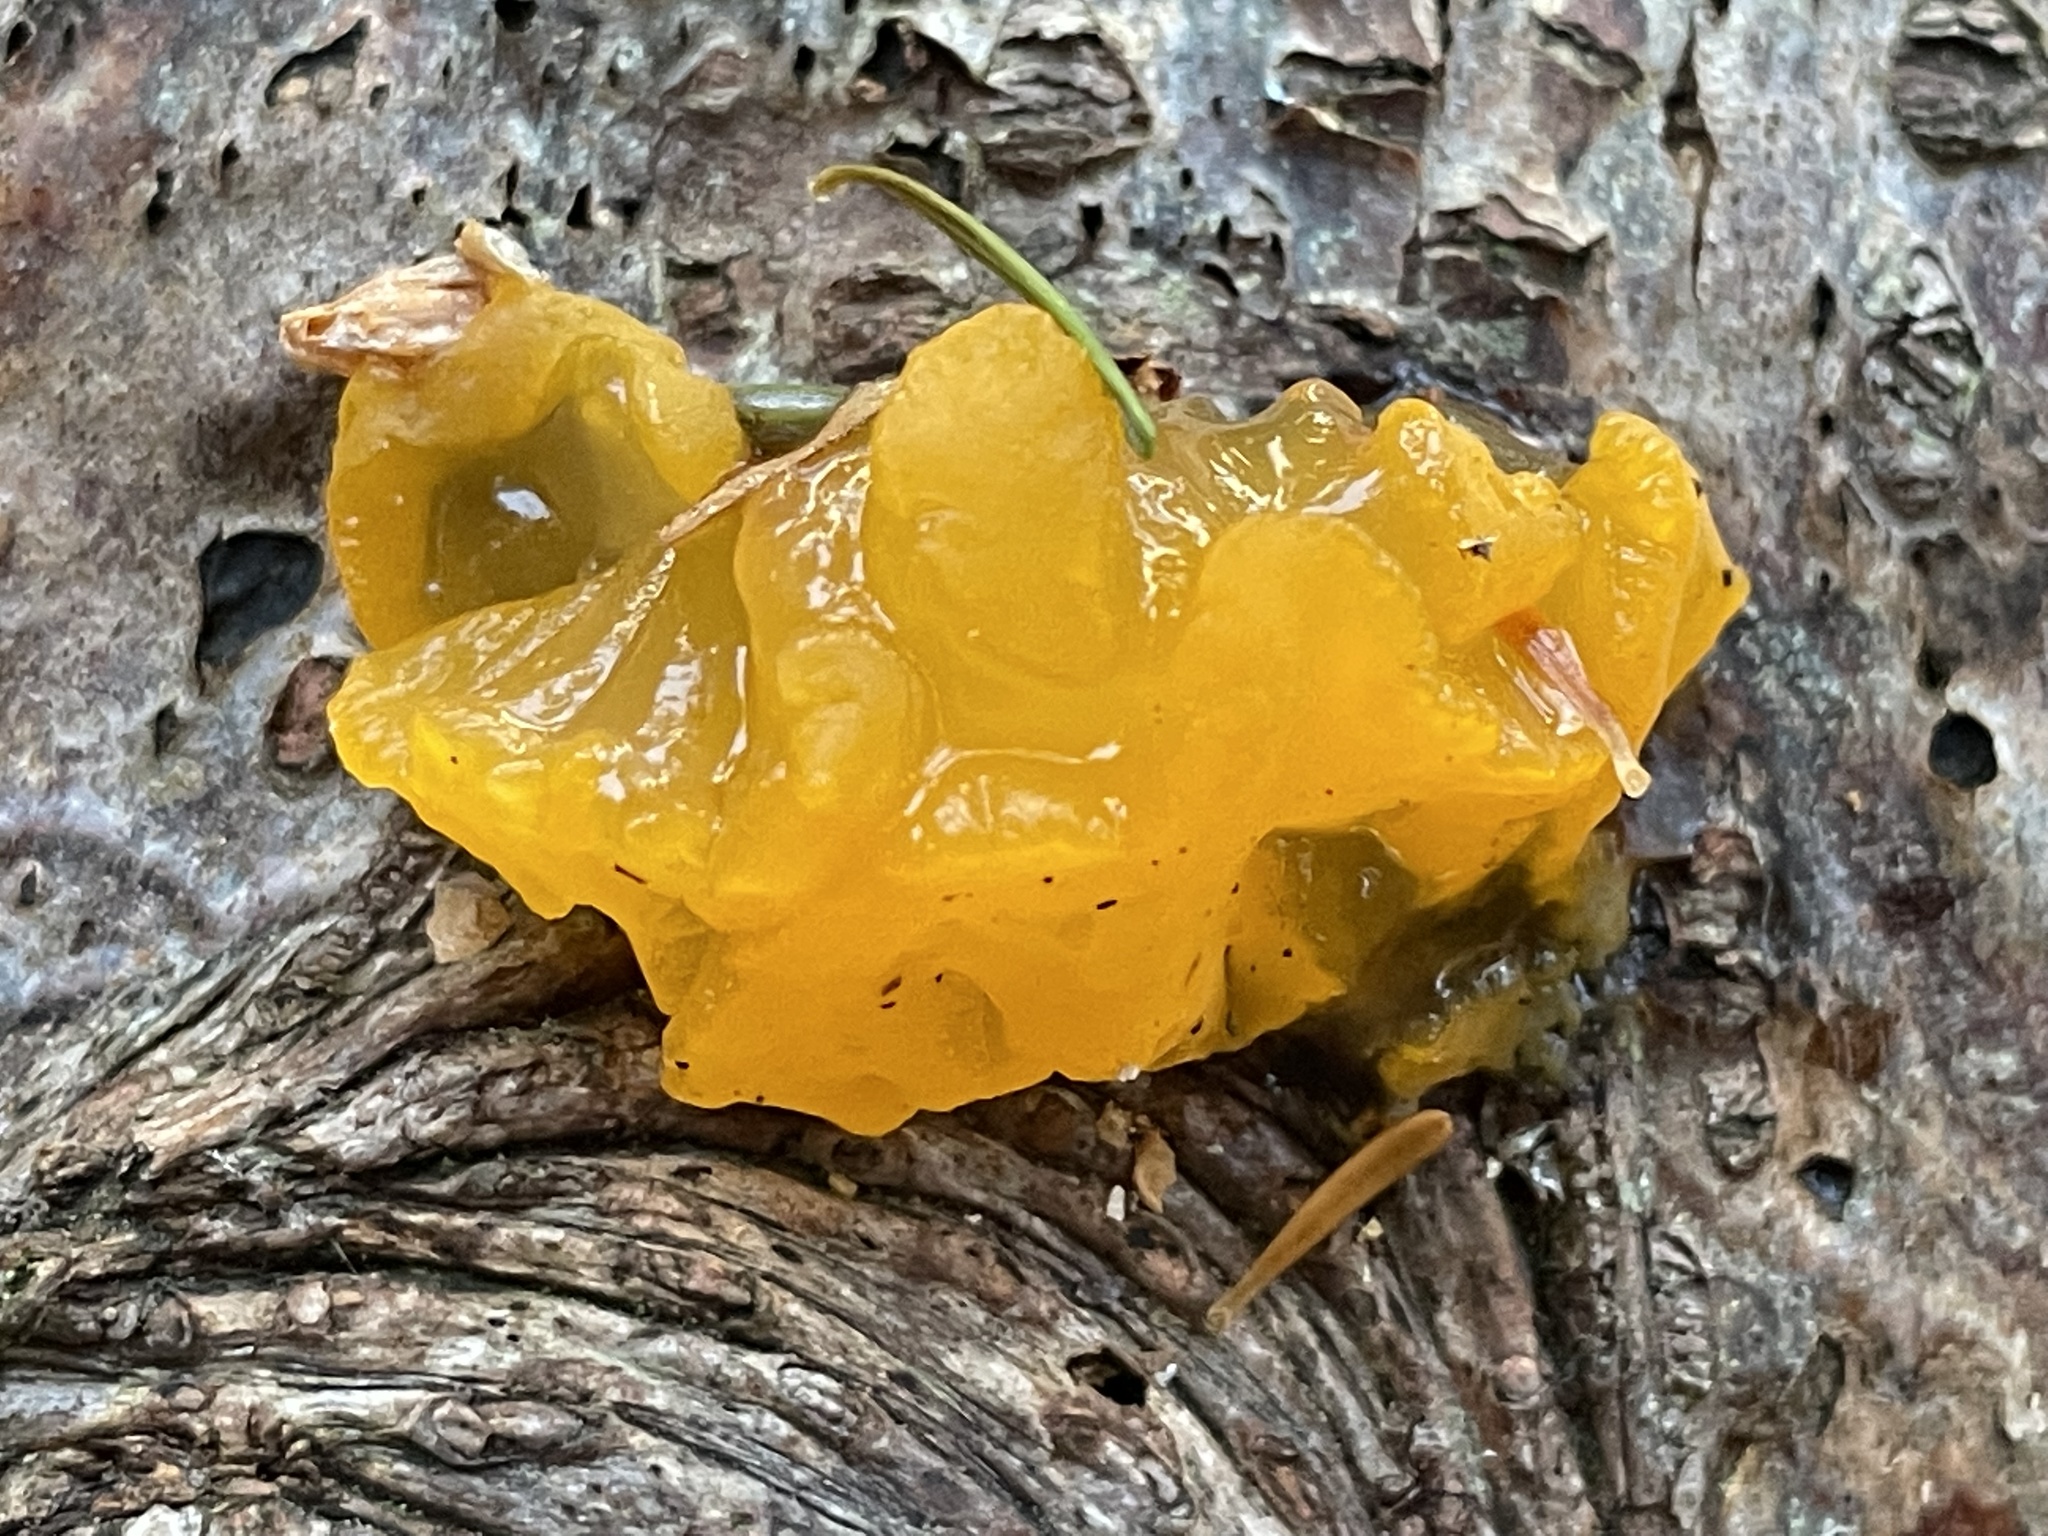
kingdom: Fungi
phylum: Basidiomycota
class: Dacrymycetes
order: Dacrymycetales
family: Dacrymycetaceae
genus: Dacrymyces
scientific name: Dacrymyces chrysospermus
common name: Orange jelly spot
